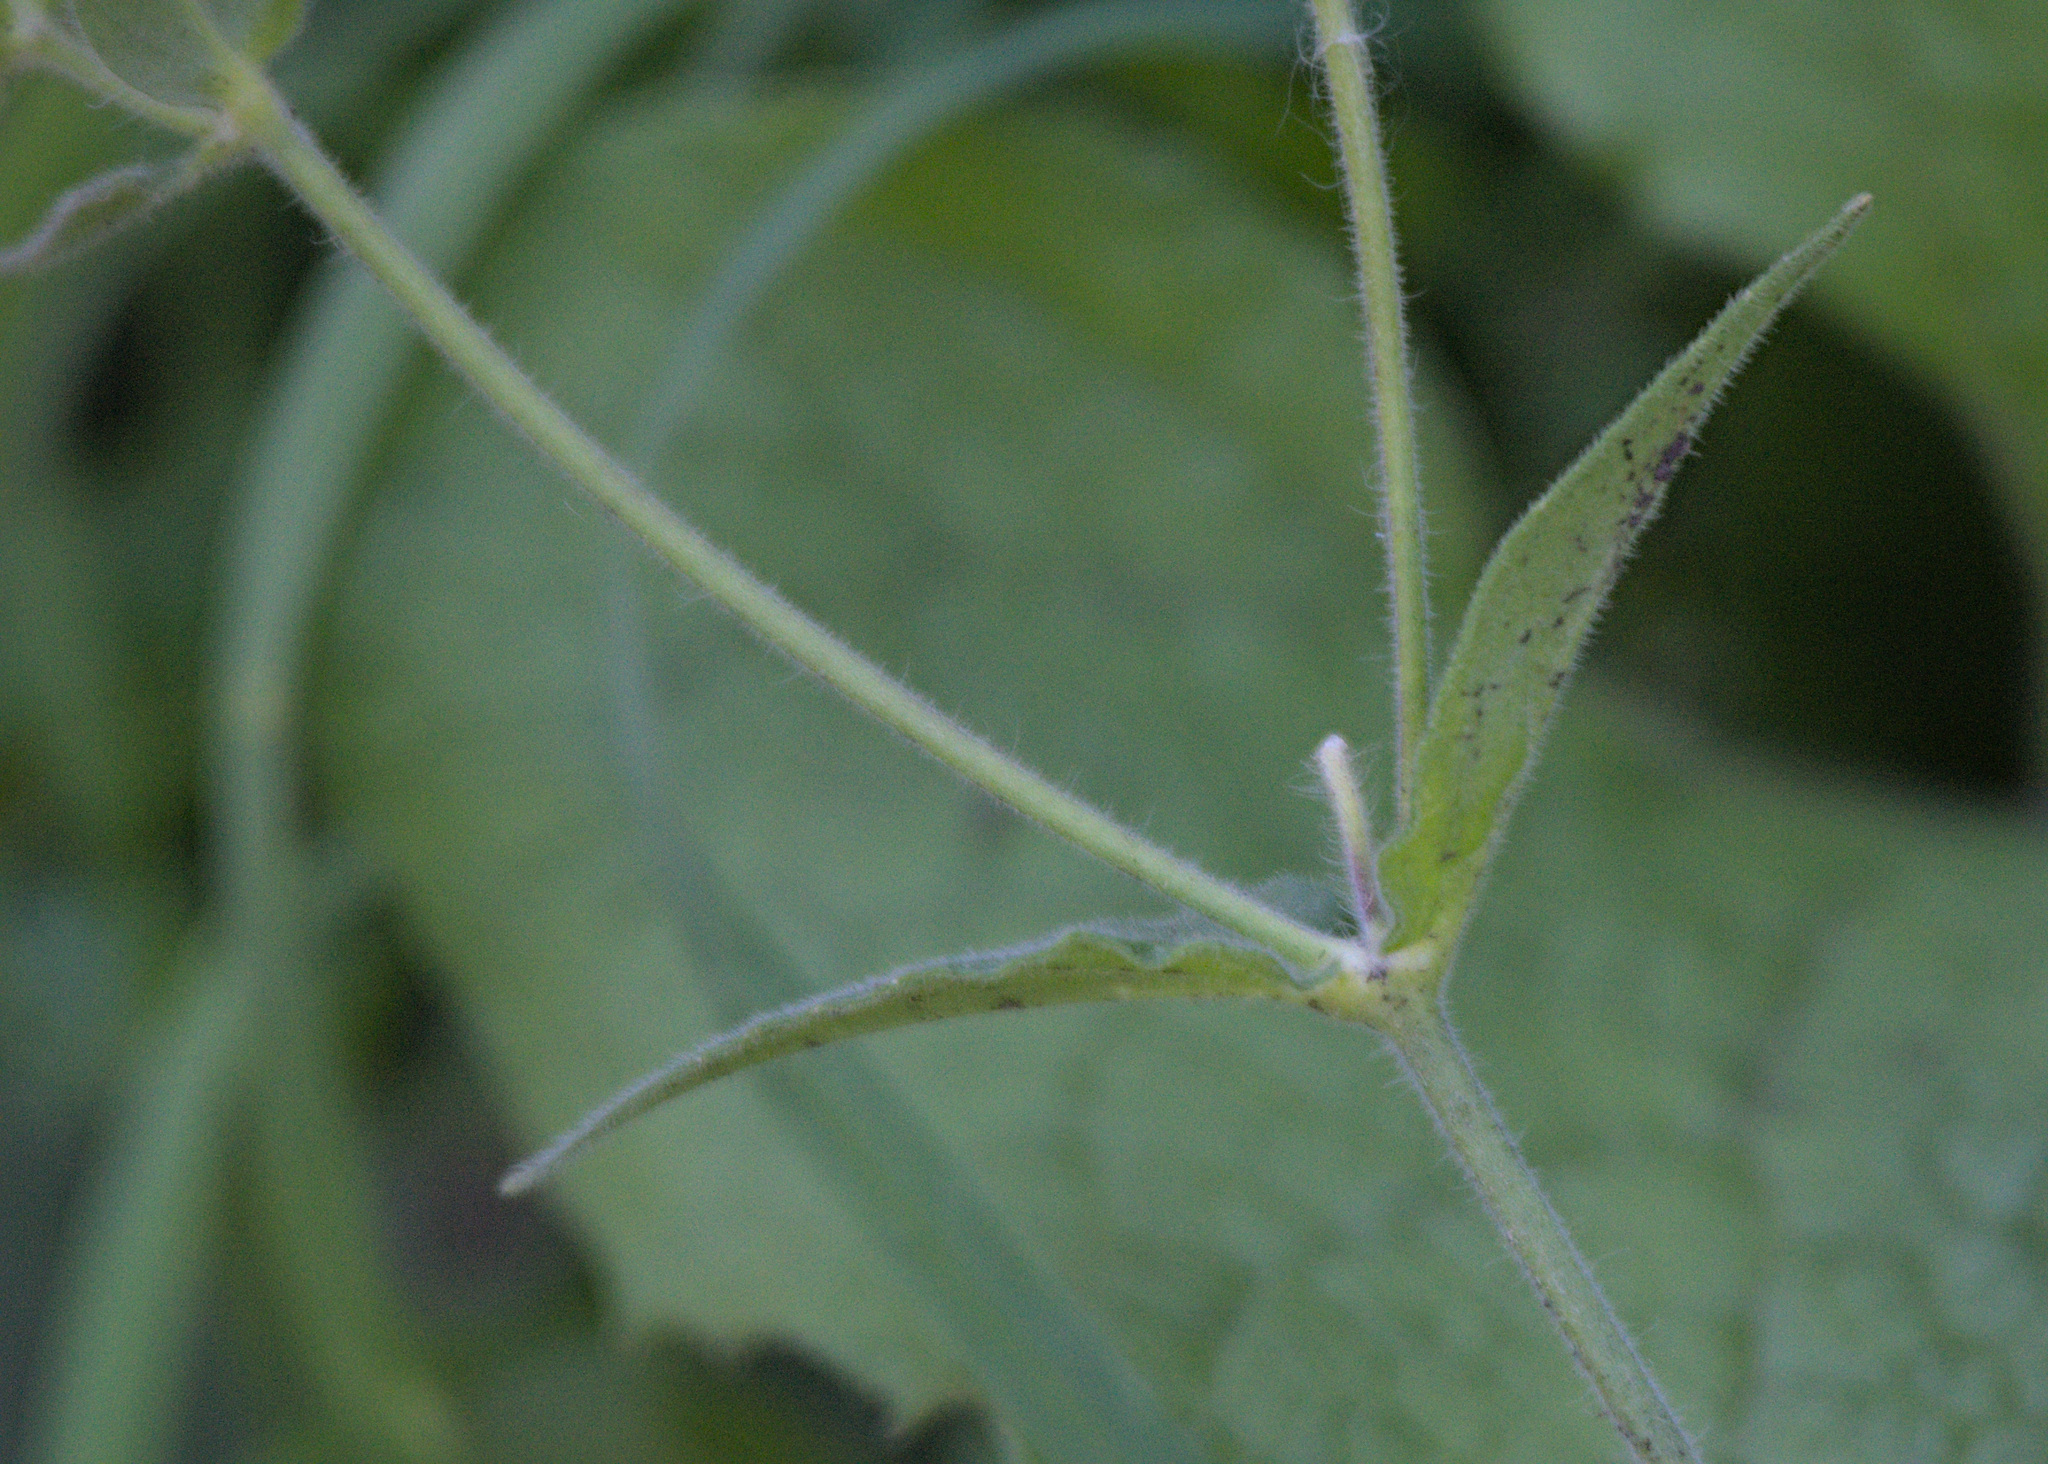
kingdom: Plantae
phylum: Tracheophyta
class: Magnoliopsida
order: Caryophyllales
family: Caryophyllaceae
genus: Silene
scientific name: Silene latifolia
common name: White campion
